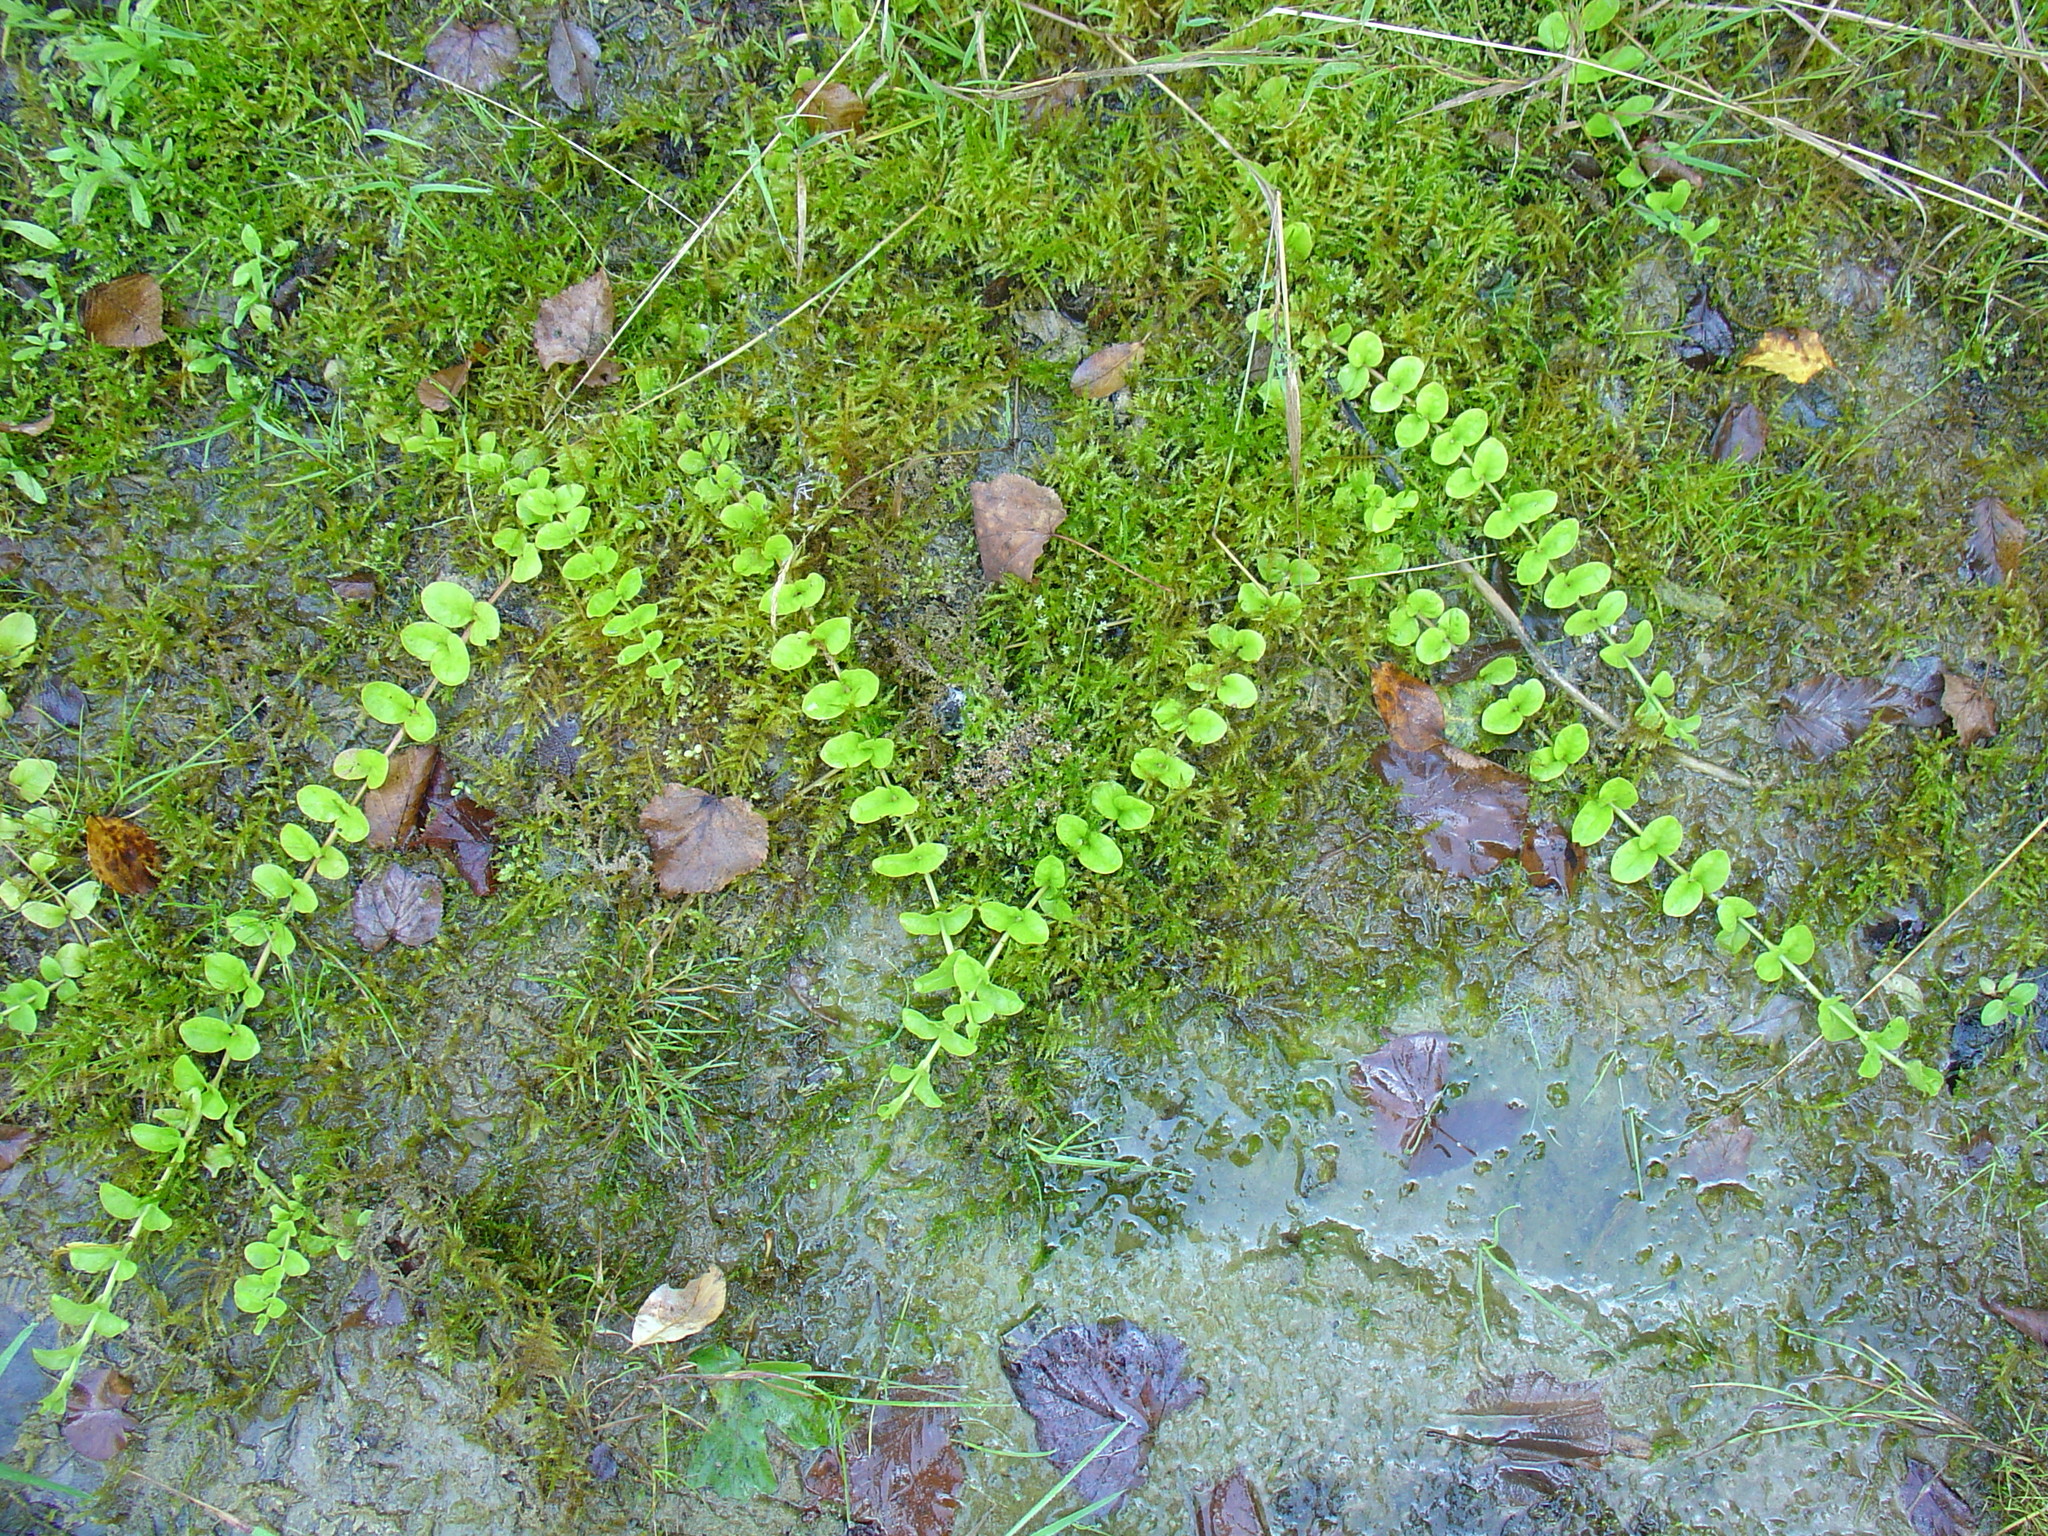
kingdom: Plantae
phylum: Tracheophyta
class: Magnoliopsida
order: Ericales
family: Primulaceae
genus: Lysimachia
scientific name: Lysimachia nummularia
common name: Moneywort
